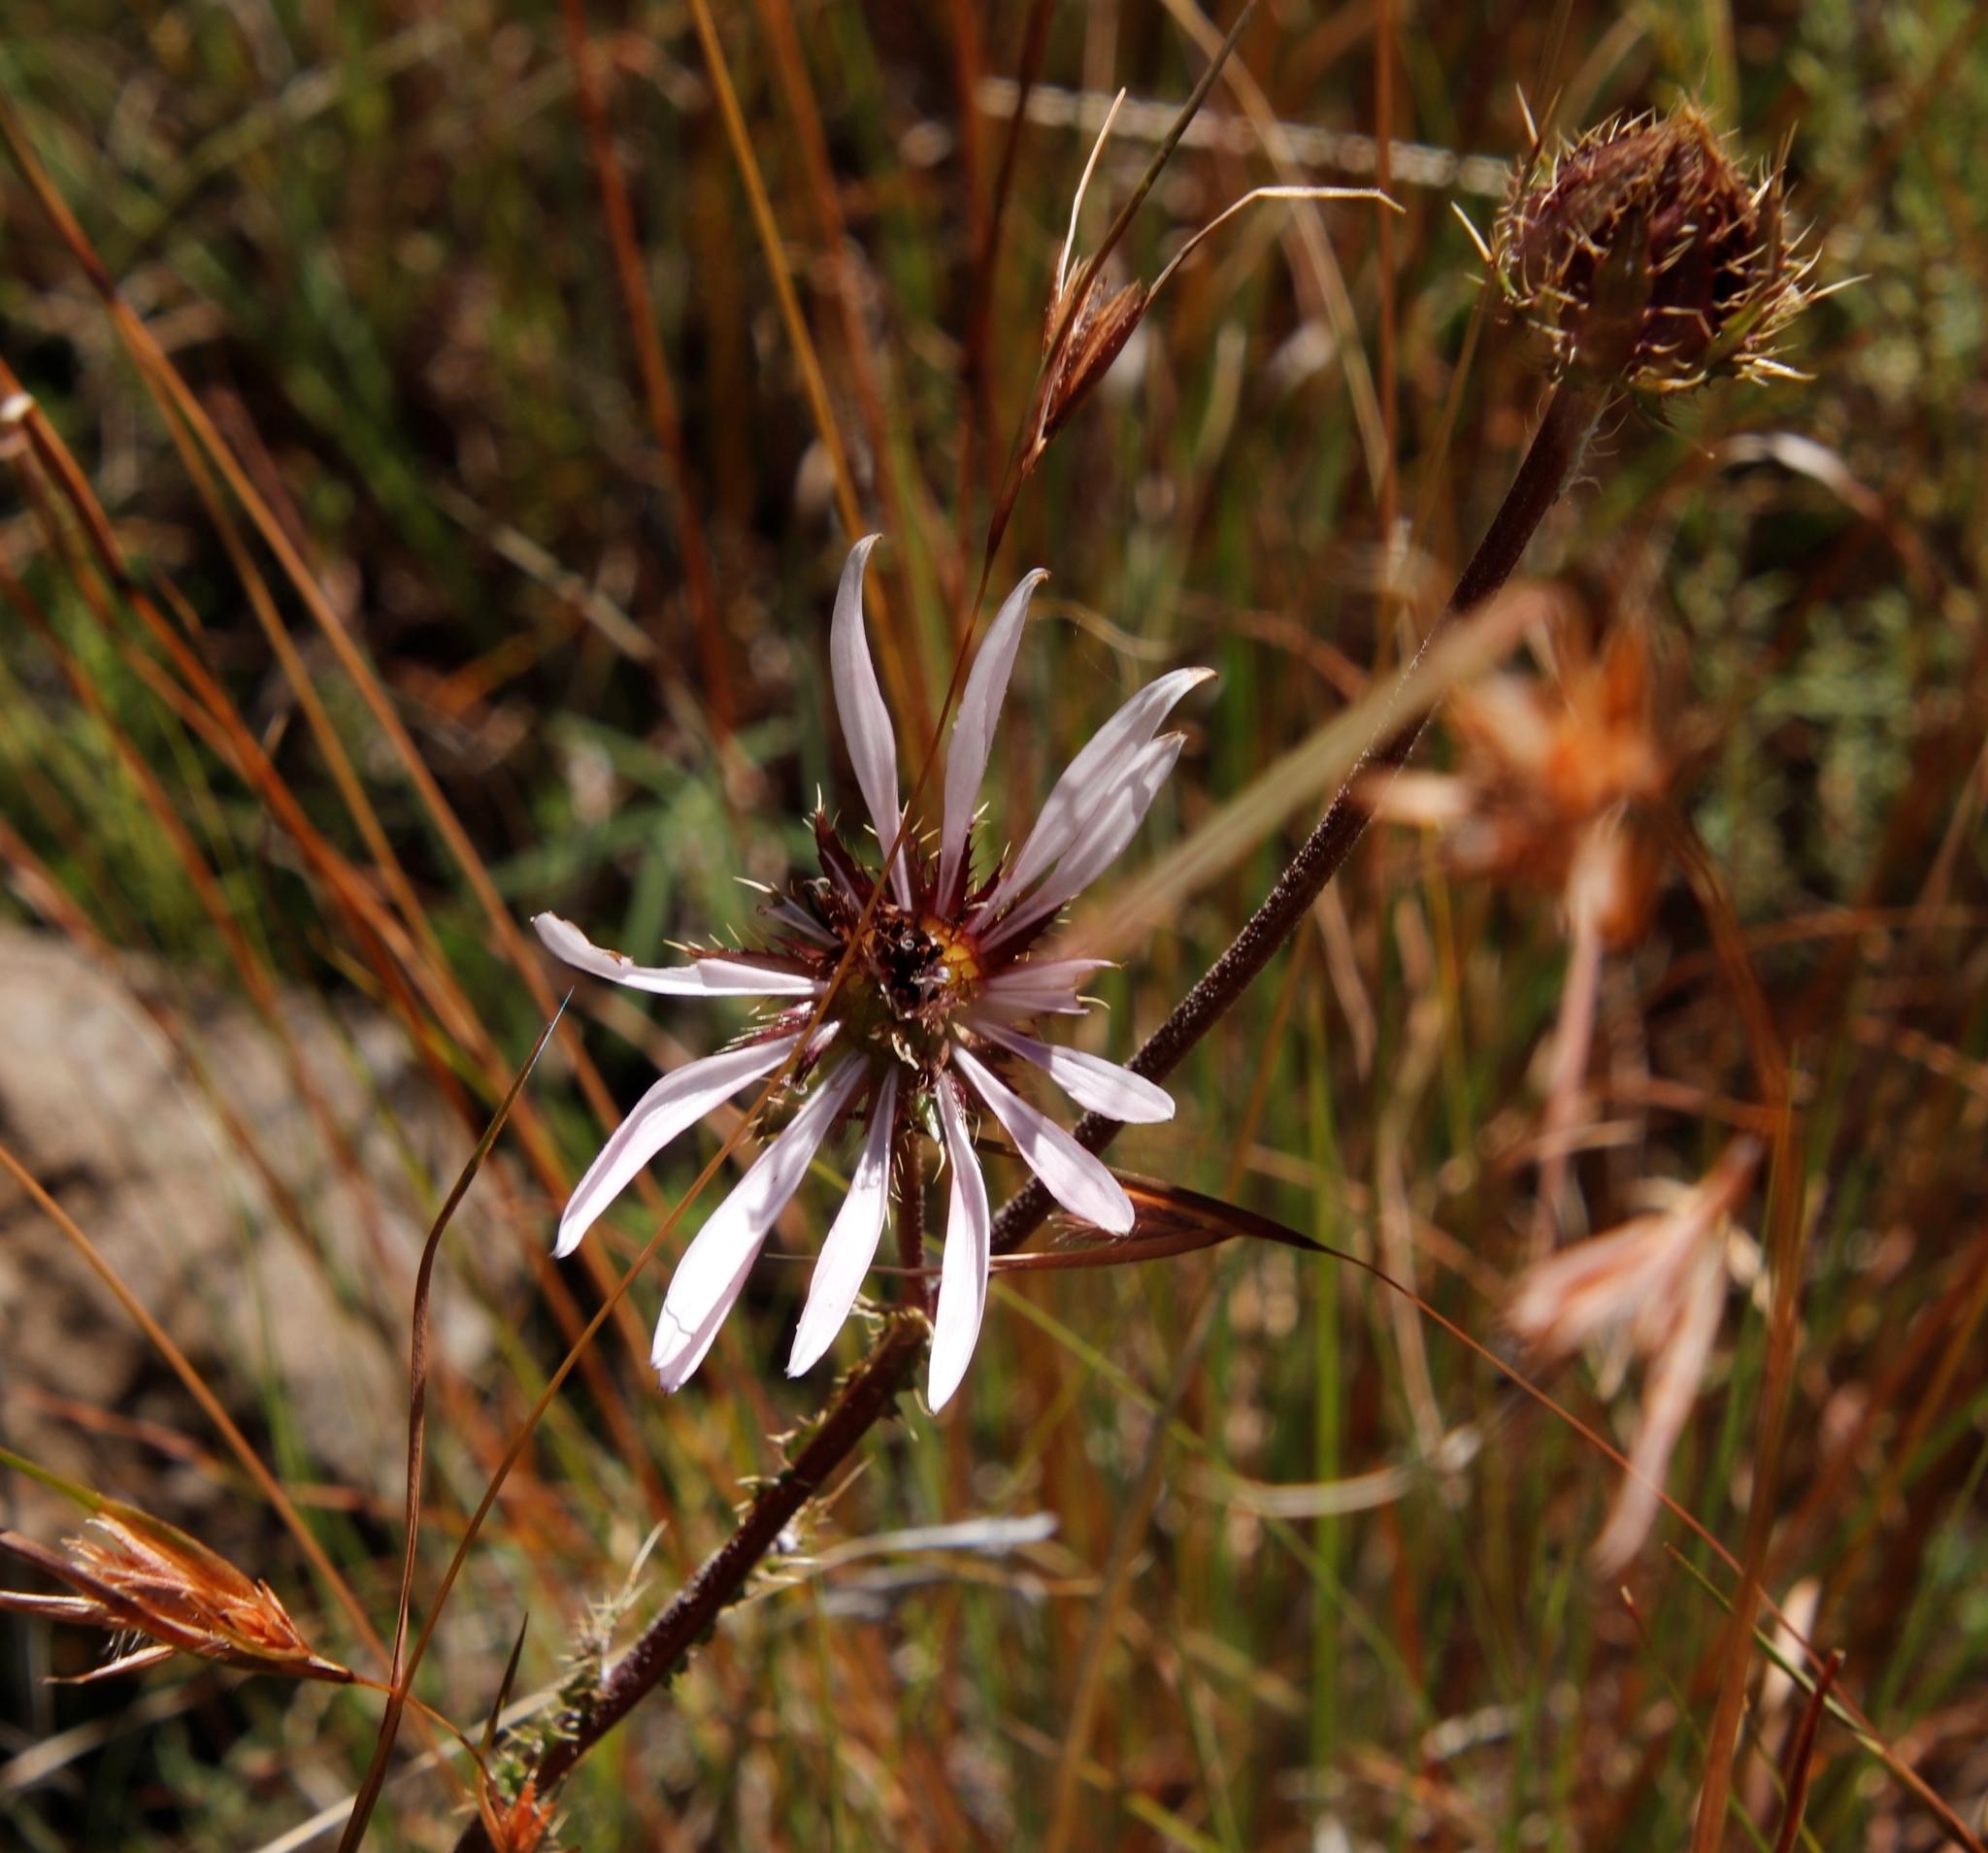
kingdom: Plantae
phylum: Tracheophyta
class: Magnoliopsida
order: Asterales
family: Asteraceae
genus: Berkheya
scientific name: Berkheya purpurea
